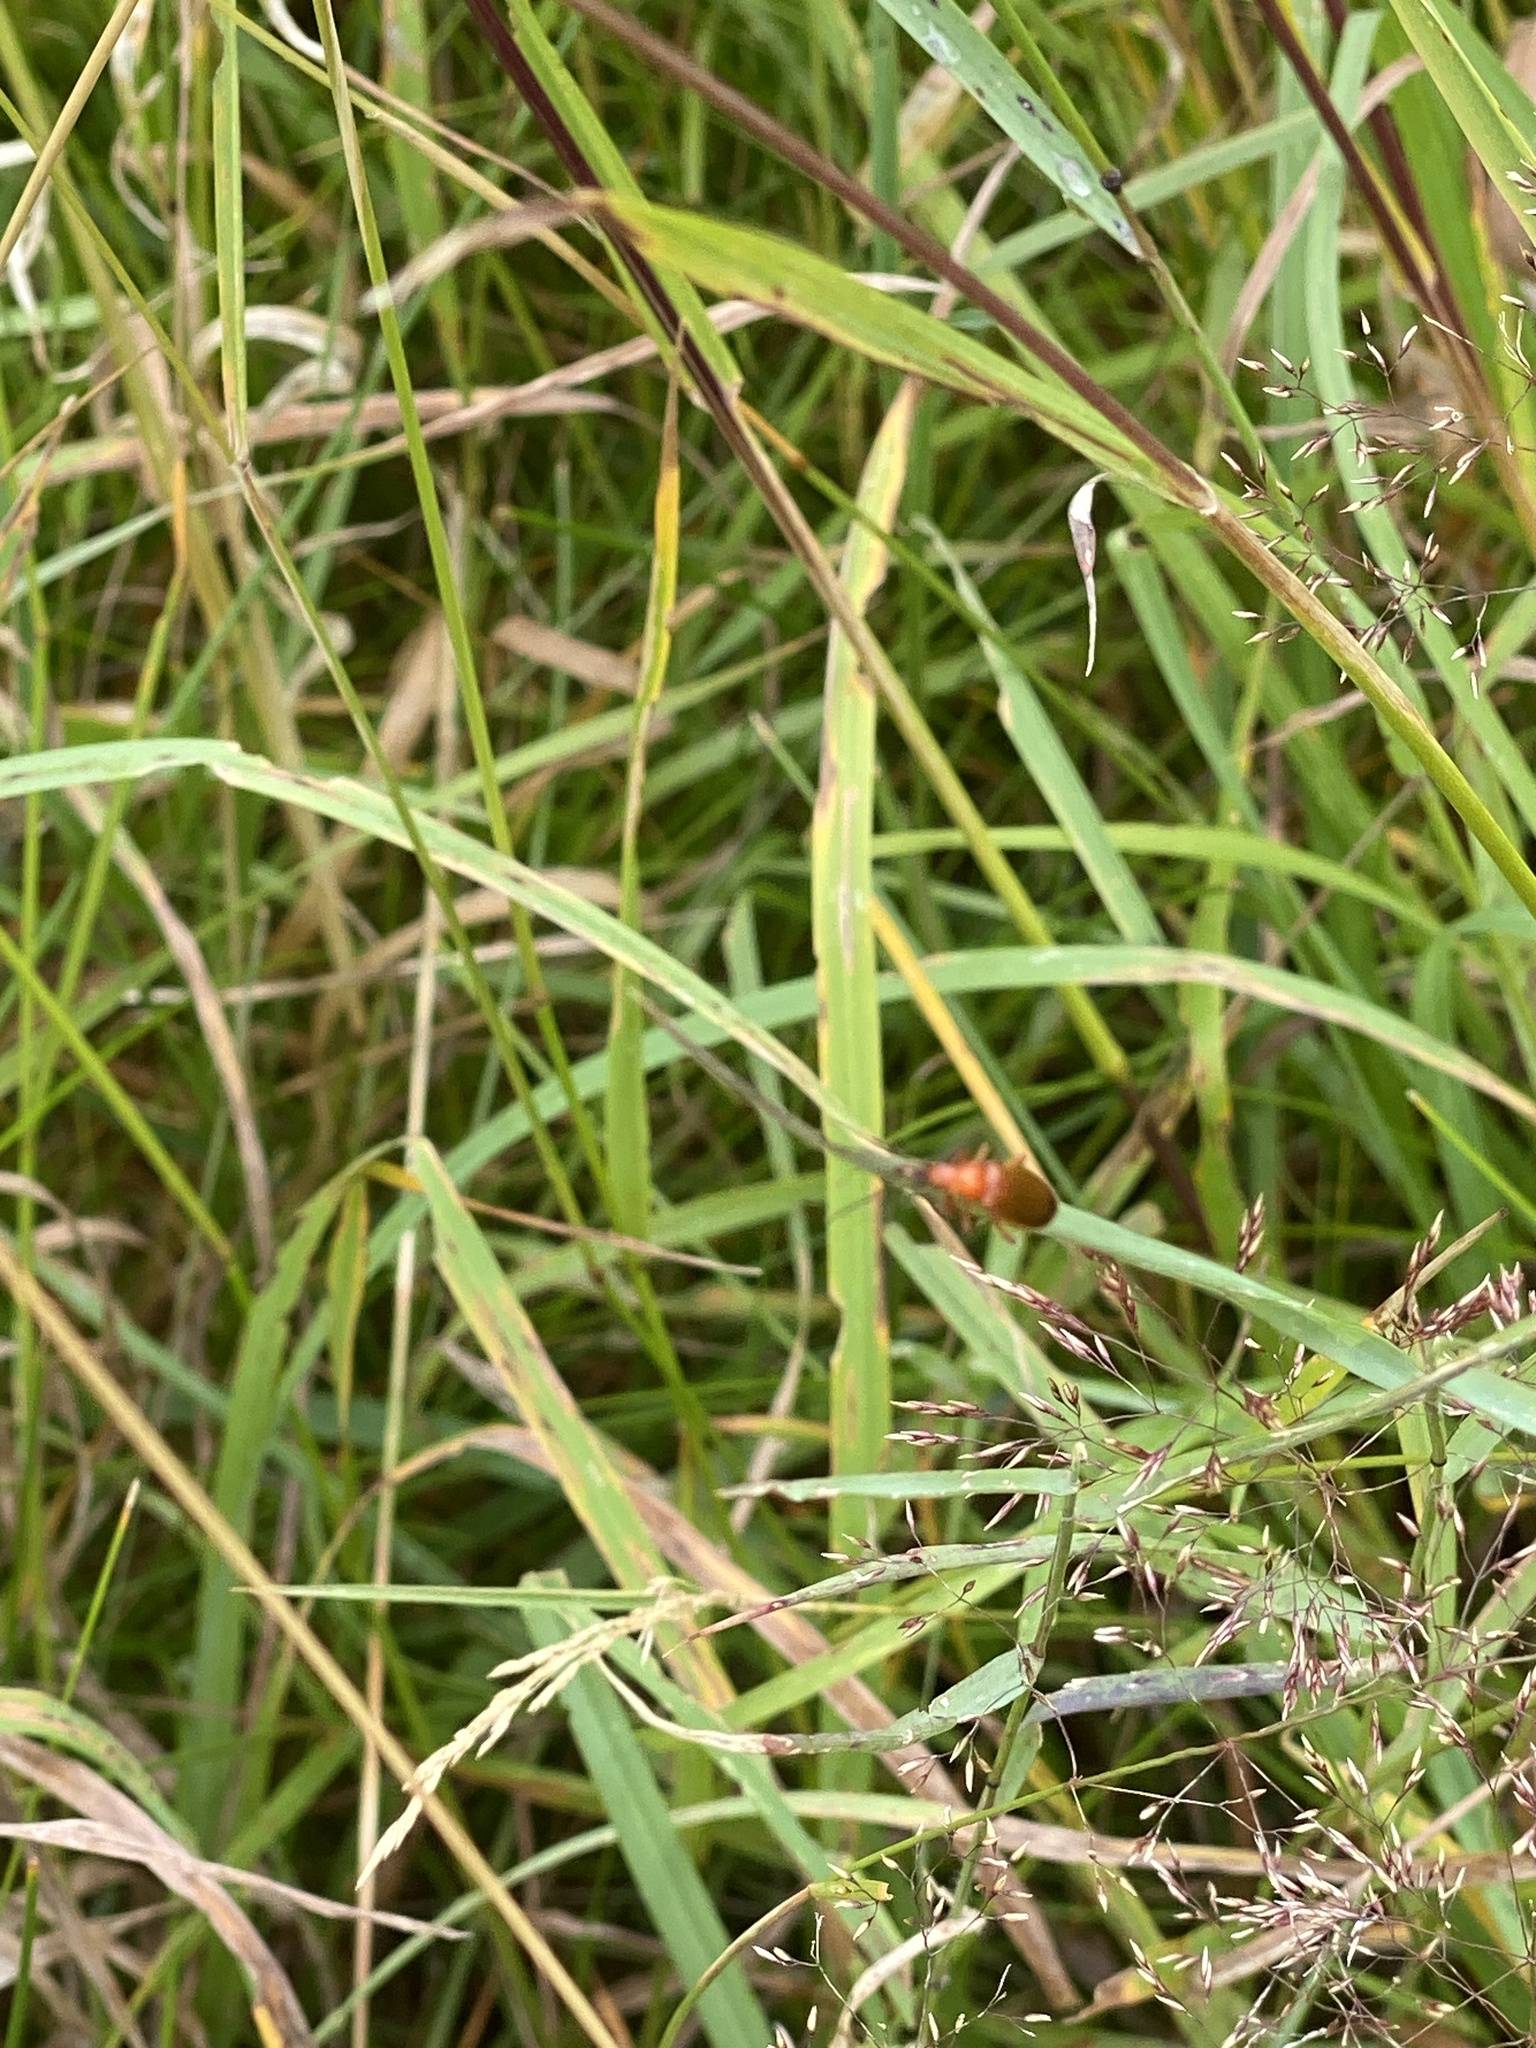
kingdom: Animalia
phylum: Arthropoda
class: Insecta
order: Coleoptera
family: Cantharidae
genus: Rhagonycha
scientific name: Rhagonycha fulva
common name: Common red soldier beetle
